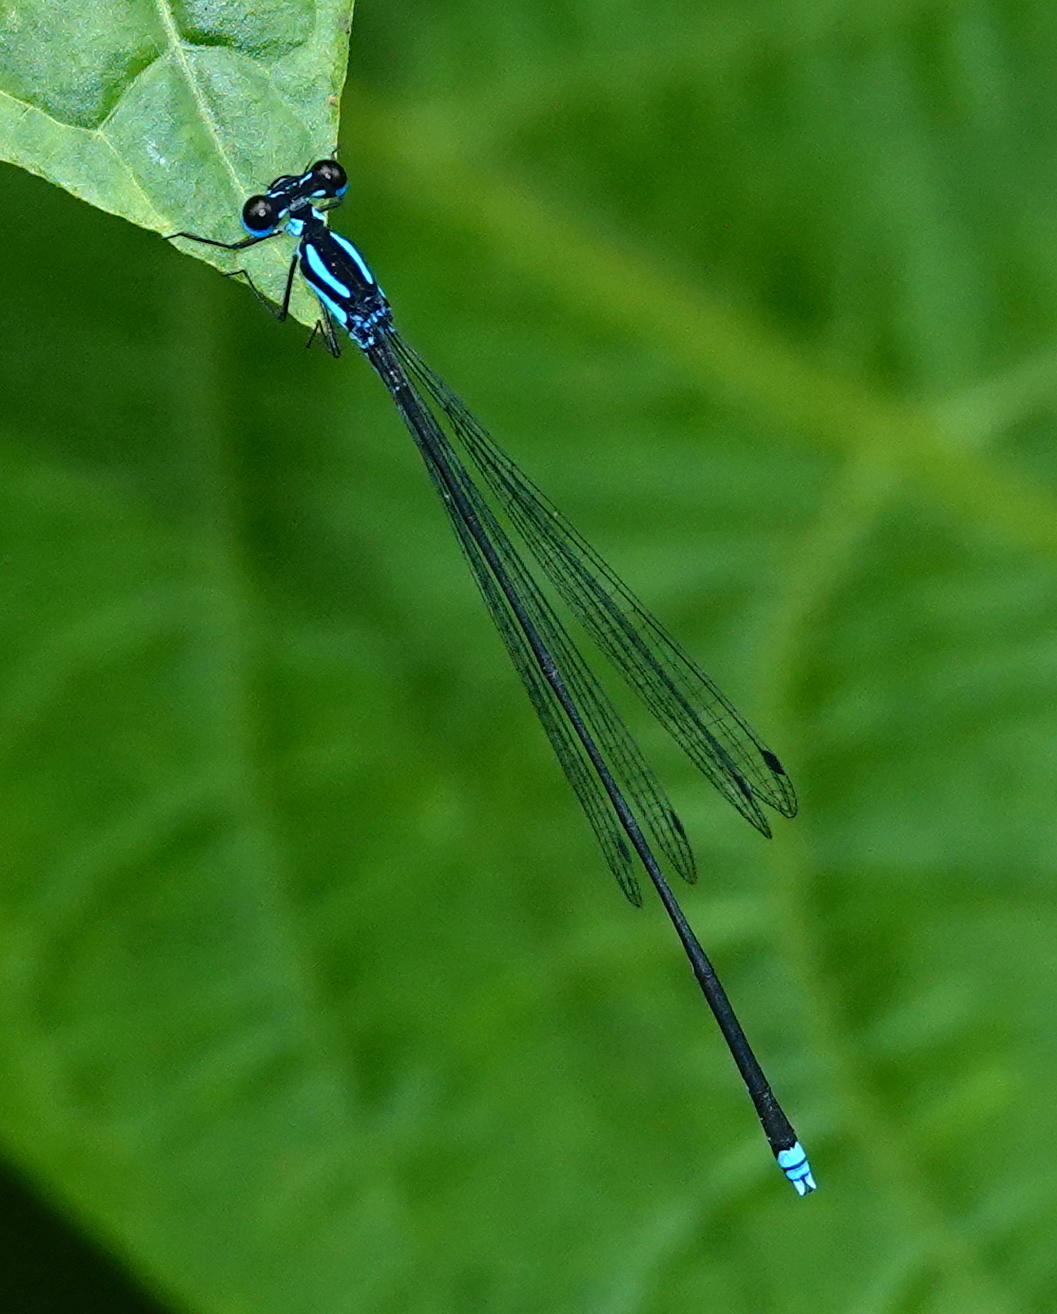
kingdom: Animalia
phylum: Arthropoda
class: Insecta
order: Odonata
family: Platycnemididae
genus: Coeliccia
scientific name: Coeliccia membranipes
